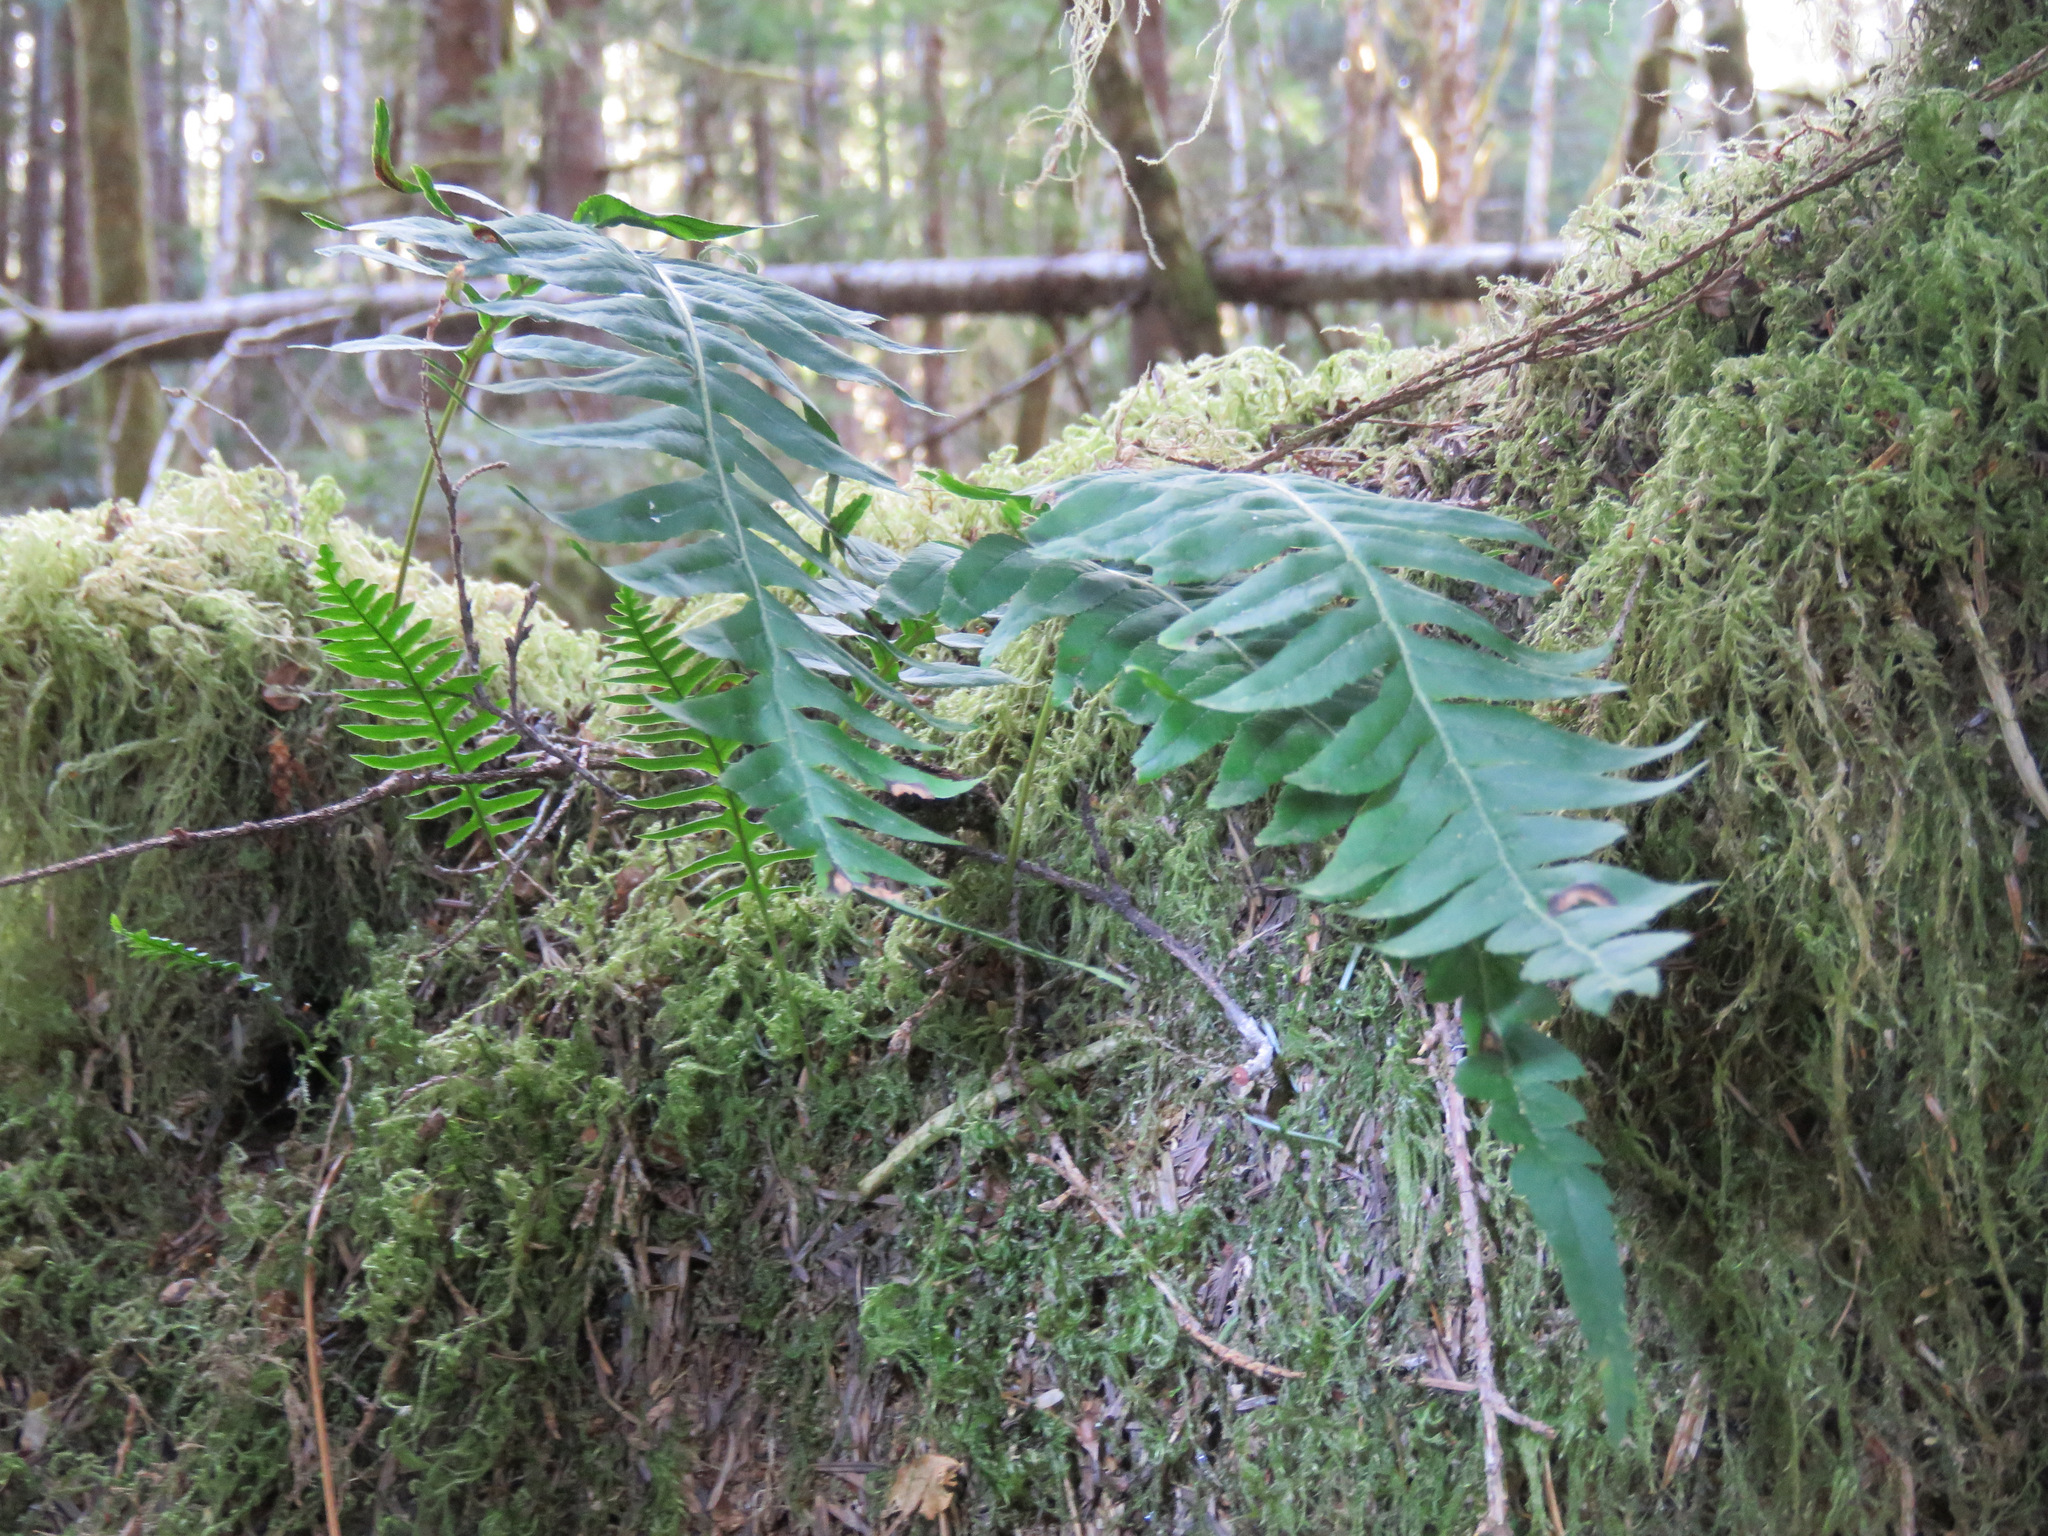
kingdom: Plantae
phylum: Tracheophyta
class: Polypodiopsida
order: Polypodiales
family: Polypodiaceae
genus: Polypodium
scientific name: Polypodium glycyrrhiza
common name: Licorice fern
